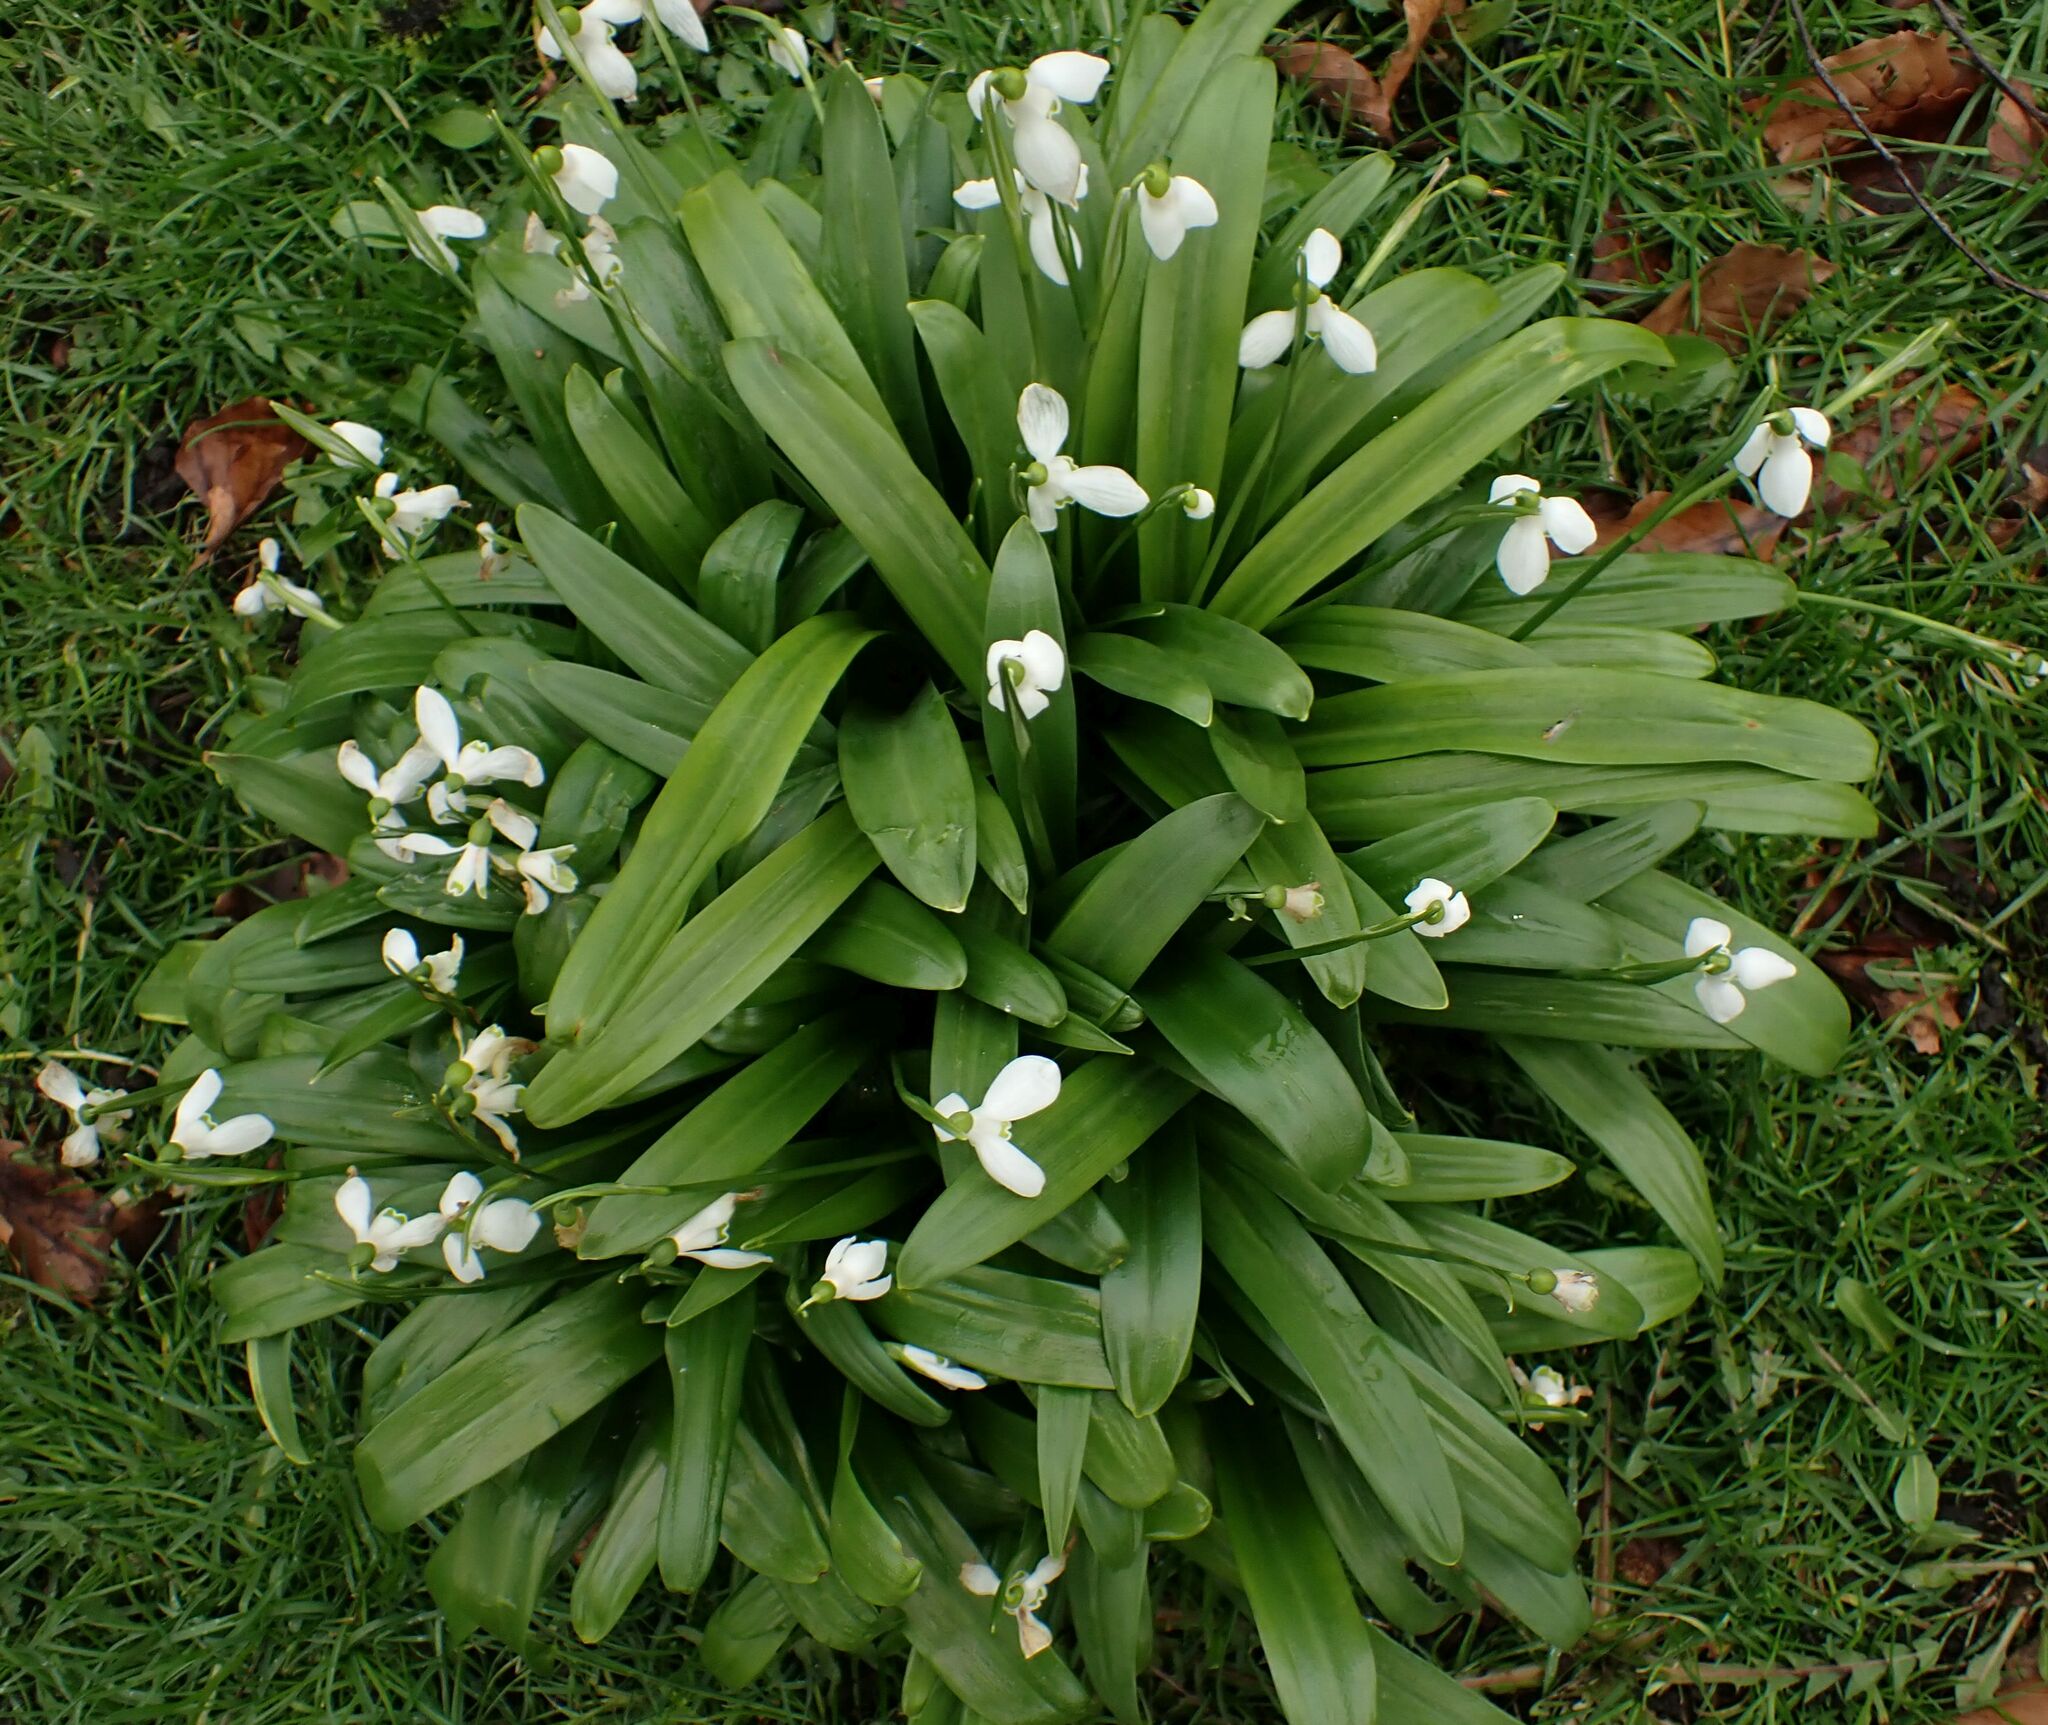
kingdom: Plantae
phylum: Tracheophyta
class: Liliopsida
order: Asparagales
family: Amaryllidaceae
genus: Galanthus
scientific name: Galanthus woronowii
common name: Green snowdrop
